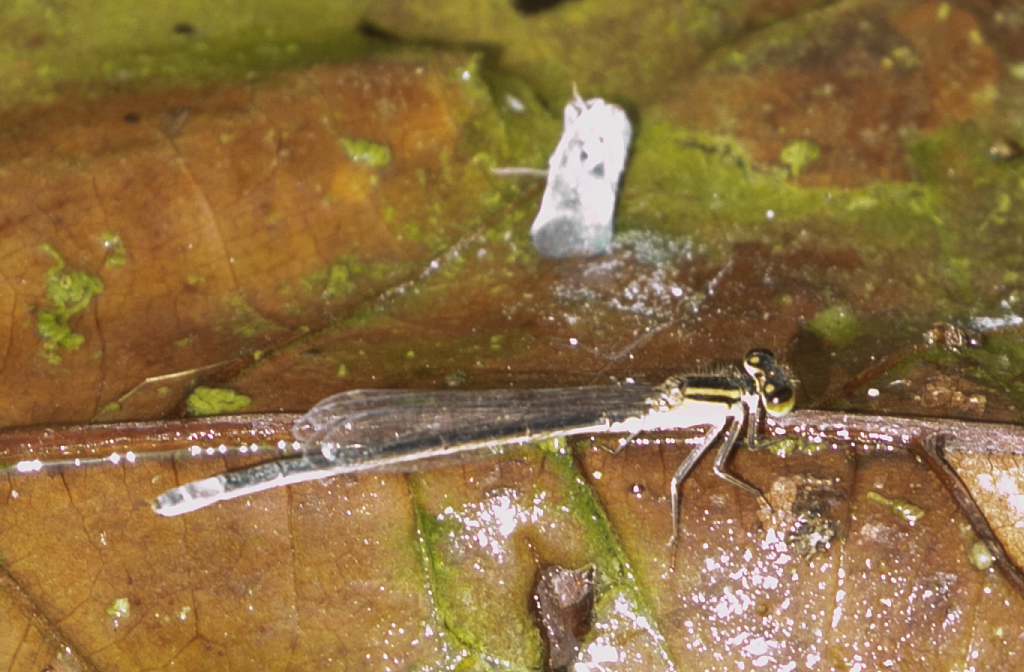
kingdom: Animalia
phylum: Arthropoda
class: Insecta
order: Odonata
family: Coenagrionidae
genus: Ischnura
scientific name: Ischnura elegans
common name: Blue-tailed damselfly
